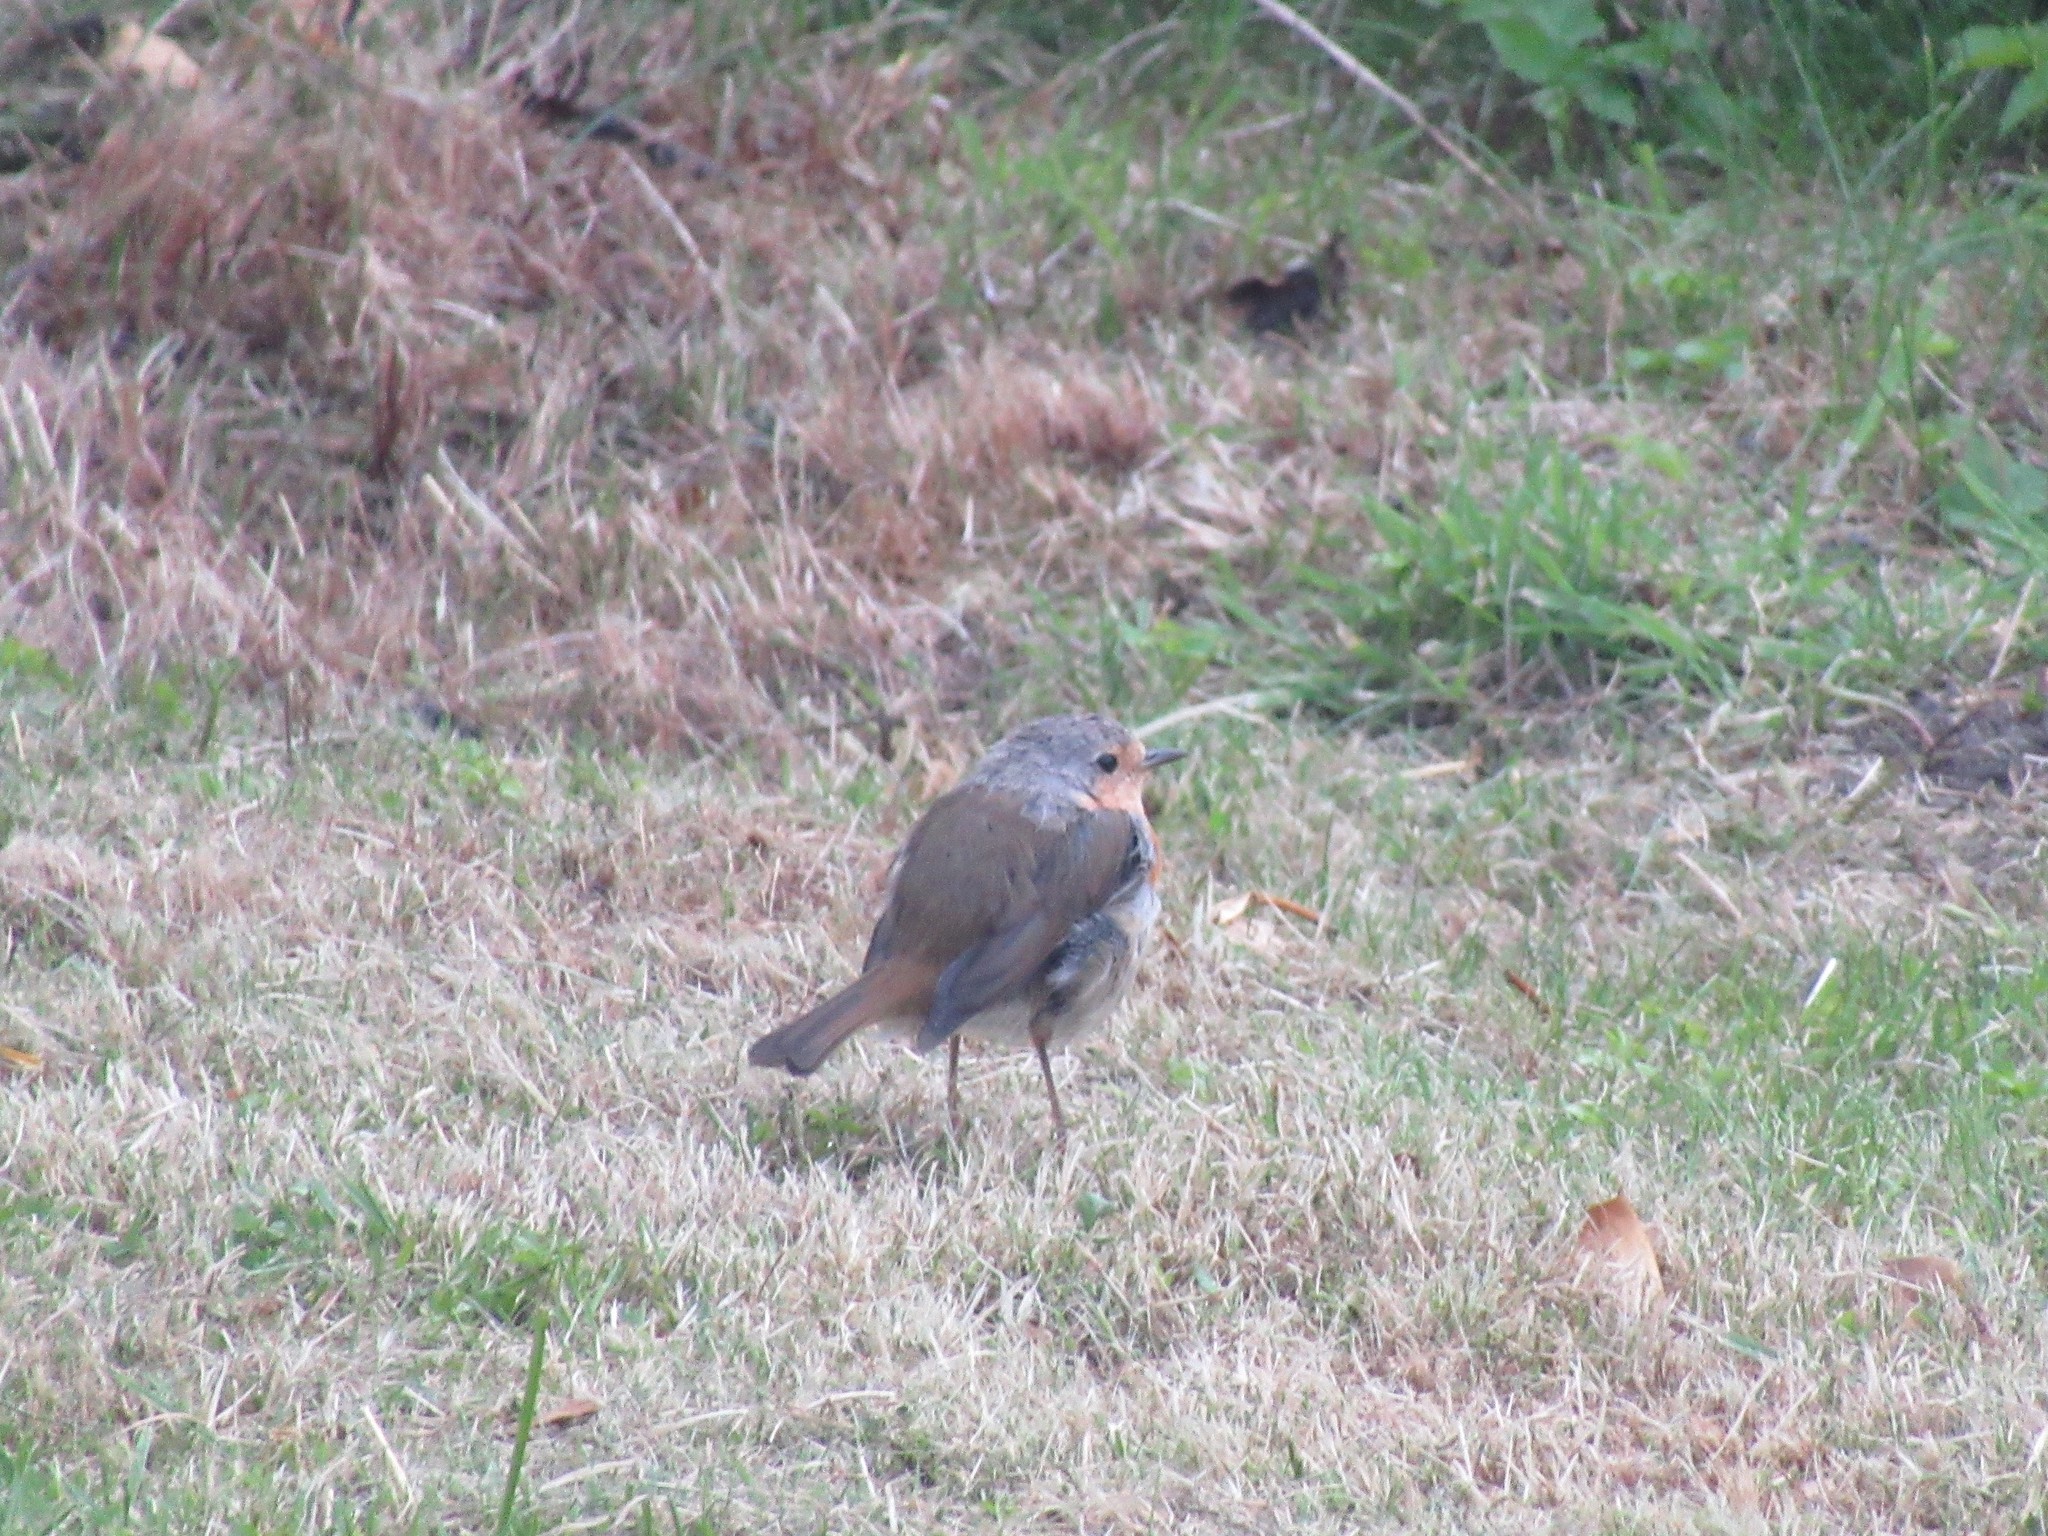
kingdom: Animalia
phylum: Chordata
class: Aves
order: Passeriformes
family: Muscicapidae
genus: Erithacus
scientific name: Erithacus rubecula
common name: European robin
